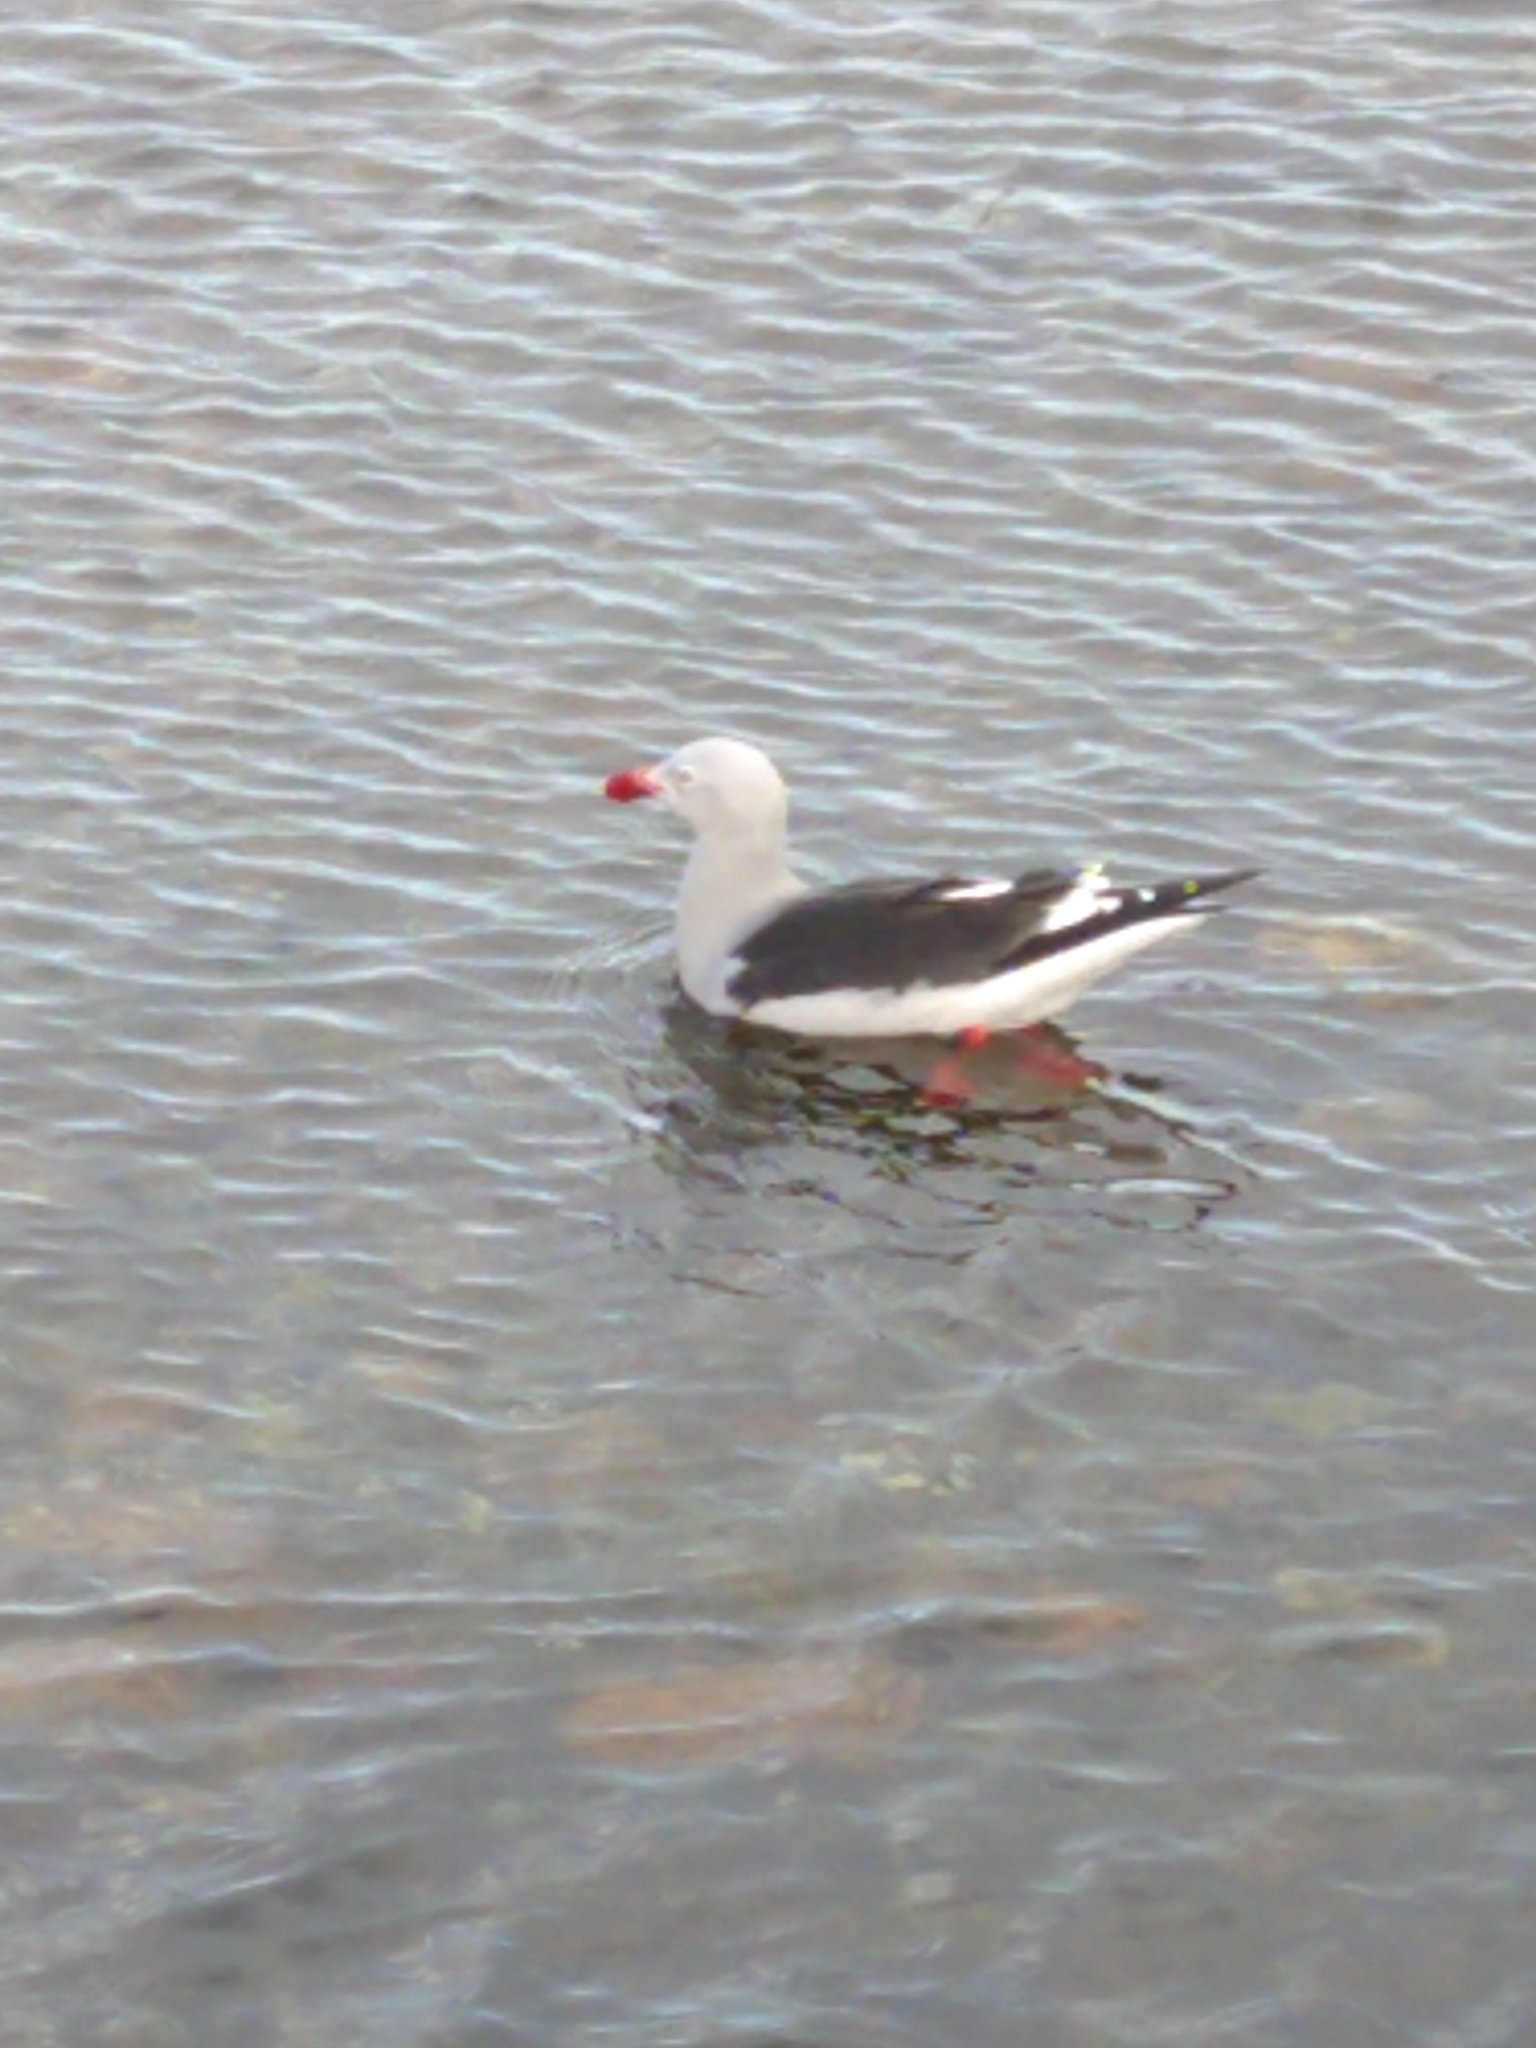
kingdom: Animalia
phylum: Chordata
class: Aves
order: Charadriiformes
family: Laridae
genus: Leucophaeus
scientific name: Leucophaeus scoresbii
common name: Dolphin gull
